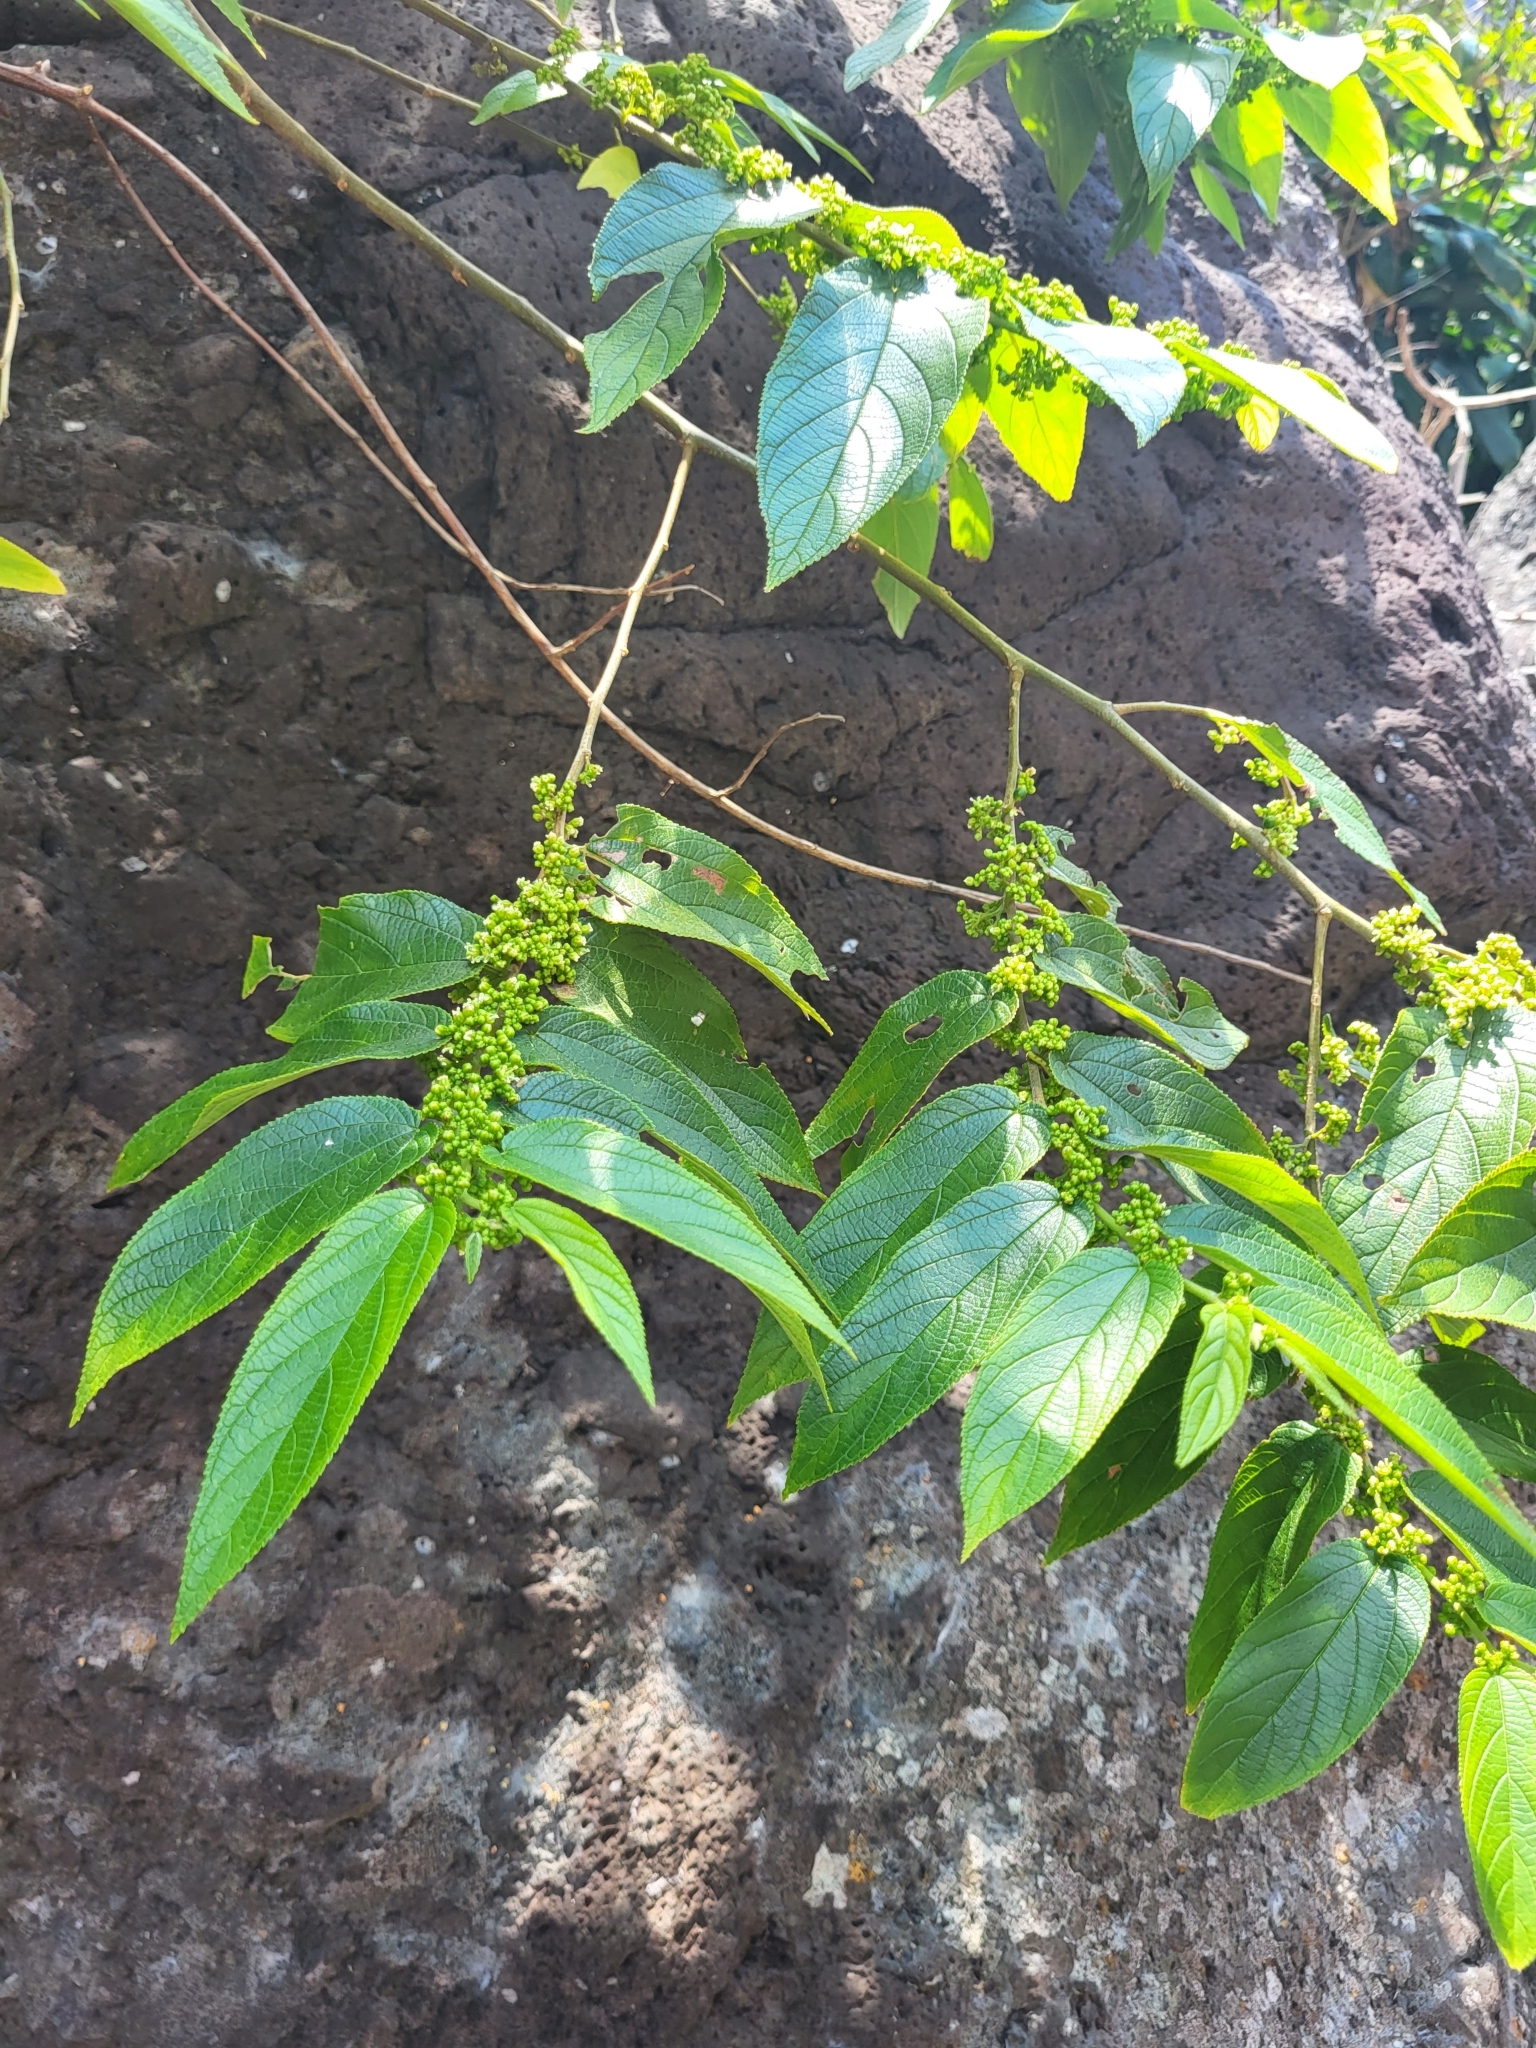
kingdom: Plantae
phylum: Tracheophyta
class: Magnoliopsida
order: Rosales
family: Cannabaceae
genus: Trema
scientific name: Trema orientale
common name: Indian charcoal tree
